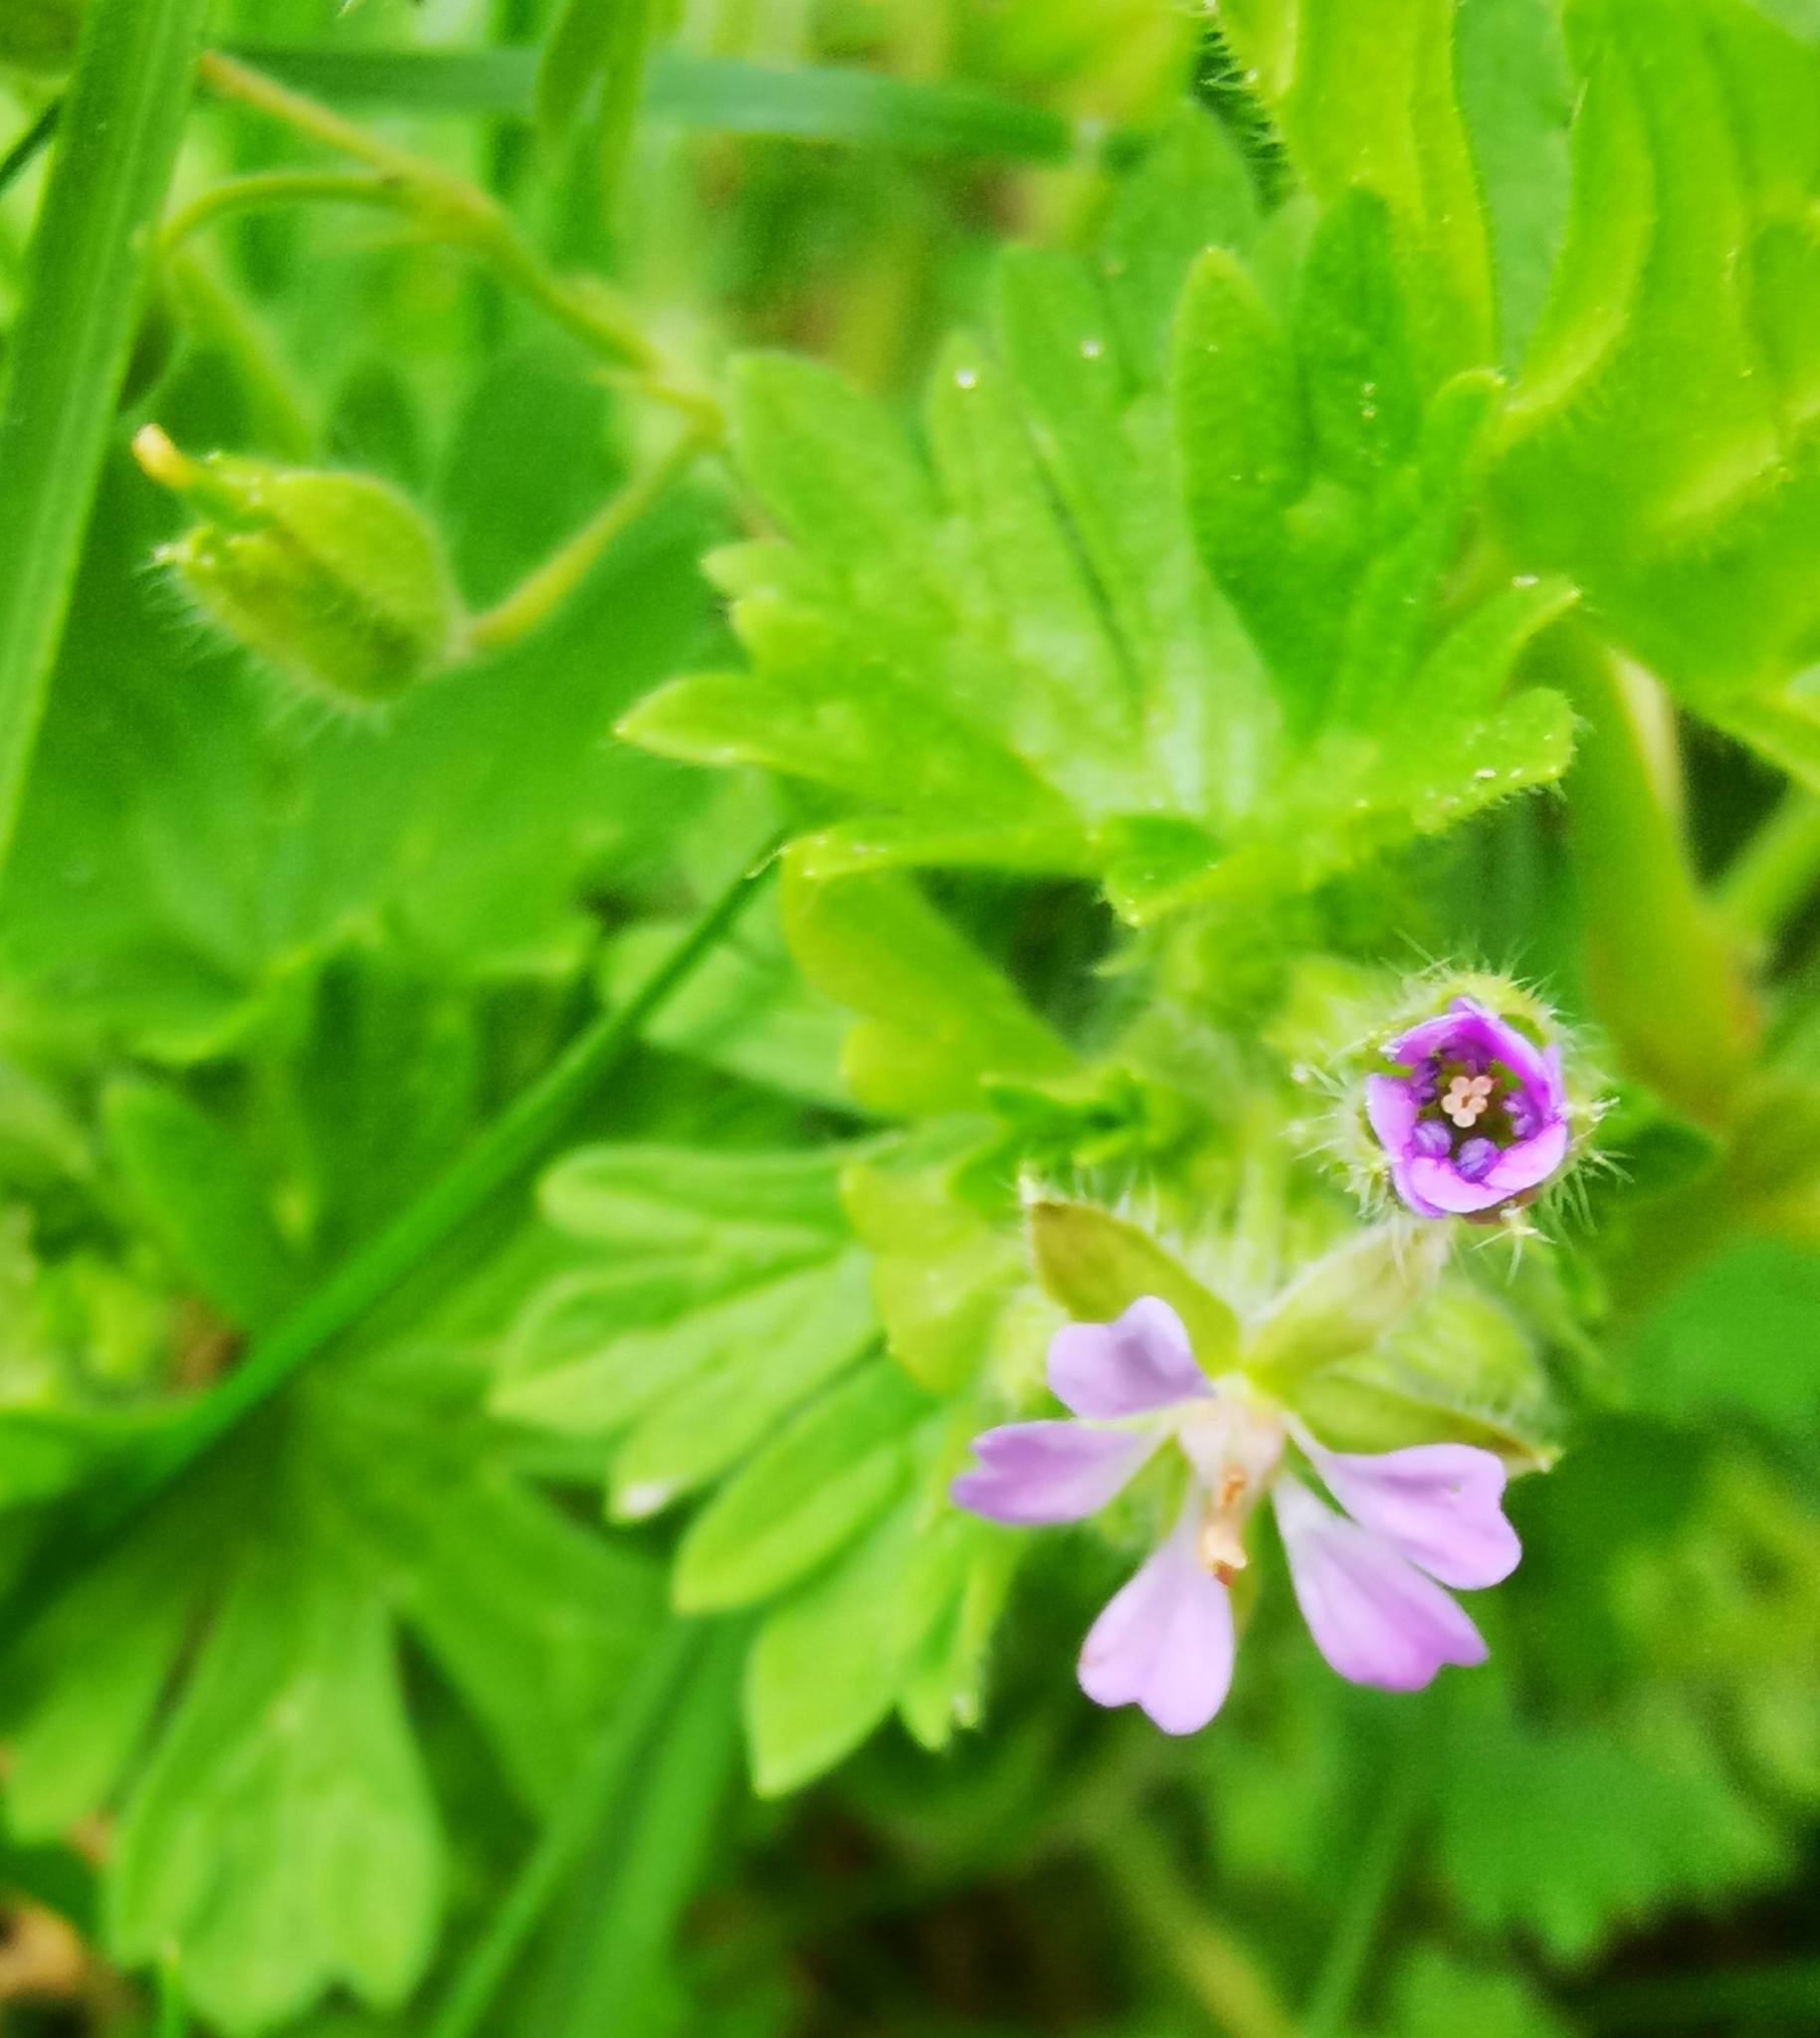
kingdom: Plantae
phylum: Tracheophyta
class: Magnoliopsida
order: Geraniales
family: Geraniaceae
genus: Geranium
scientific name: Geranium pusillum
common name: Small geranium
